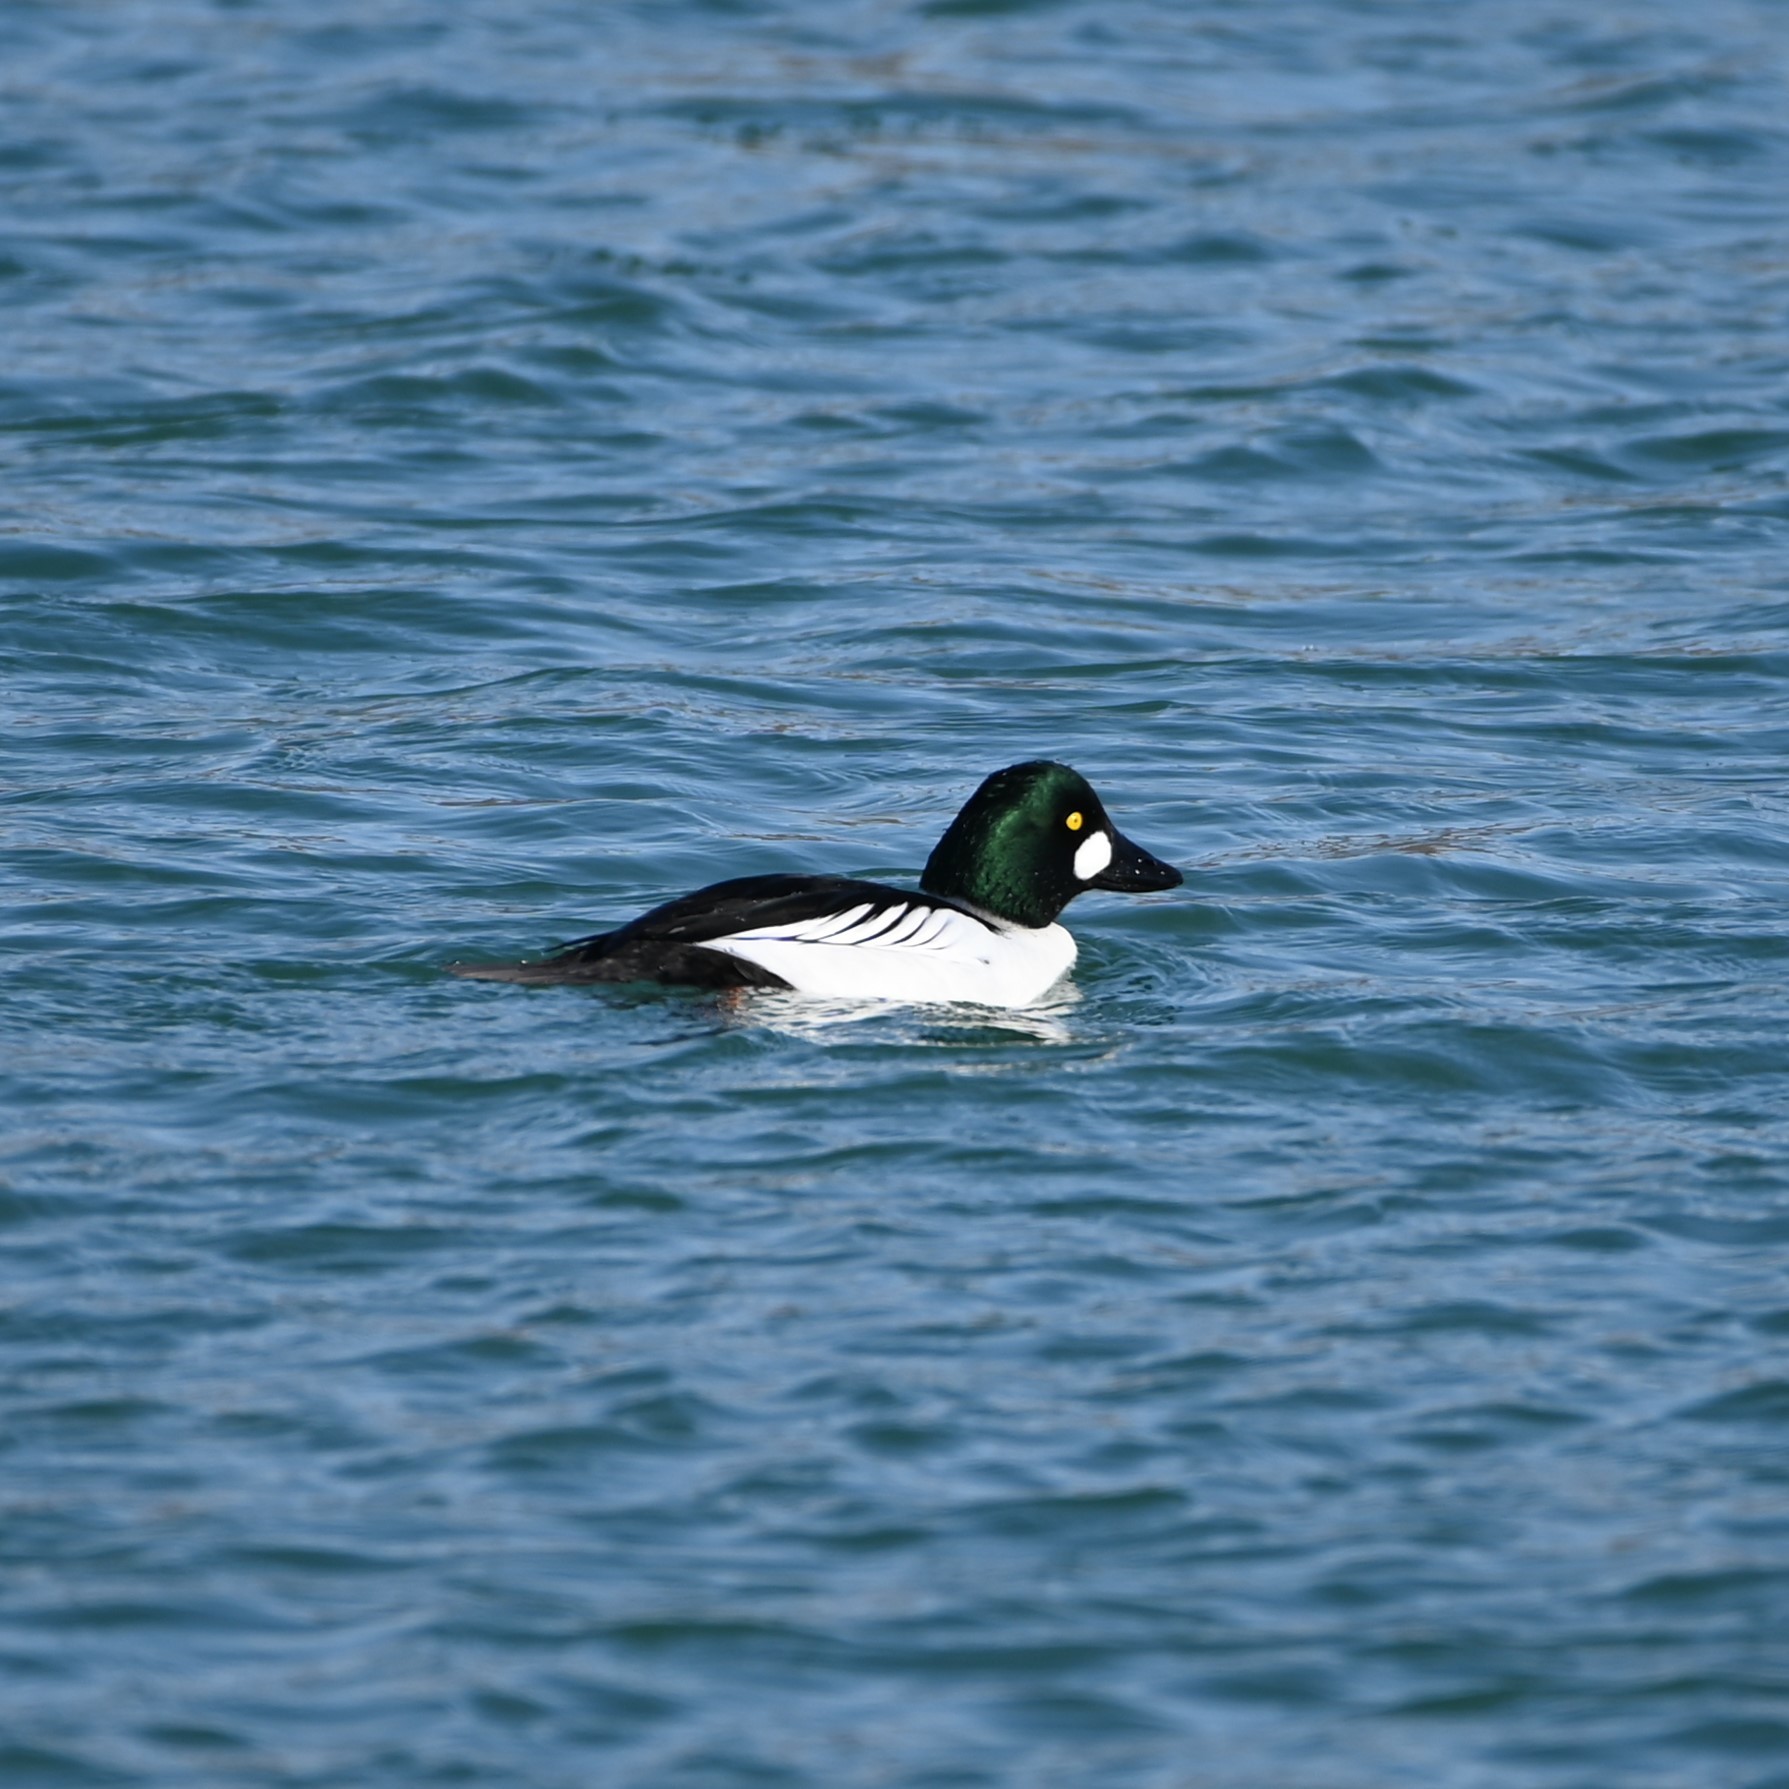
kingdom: Animalia
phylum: Chordata
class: Aves
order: Anseriformes
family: Anatidae
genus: Bucephala
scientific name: Bucephala clangula
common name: Common goldeneye
